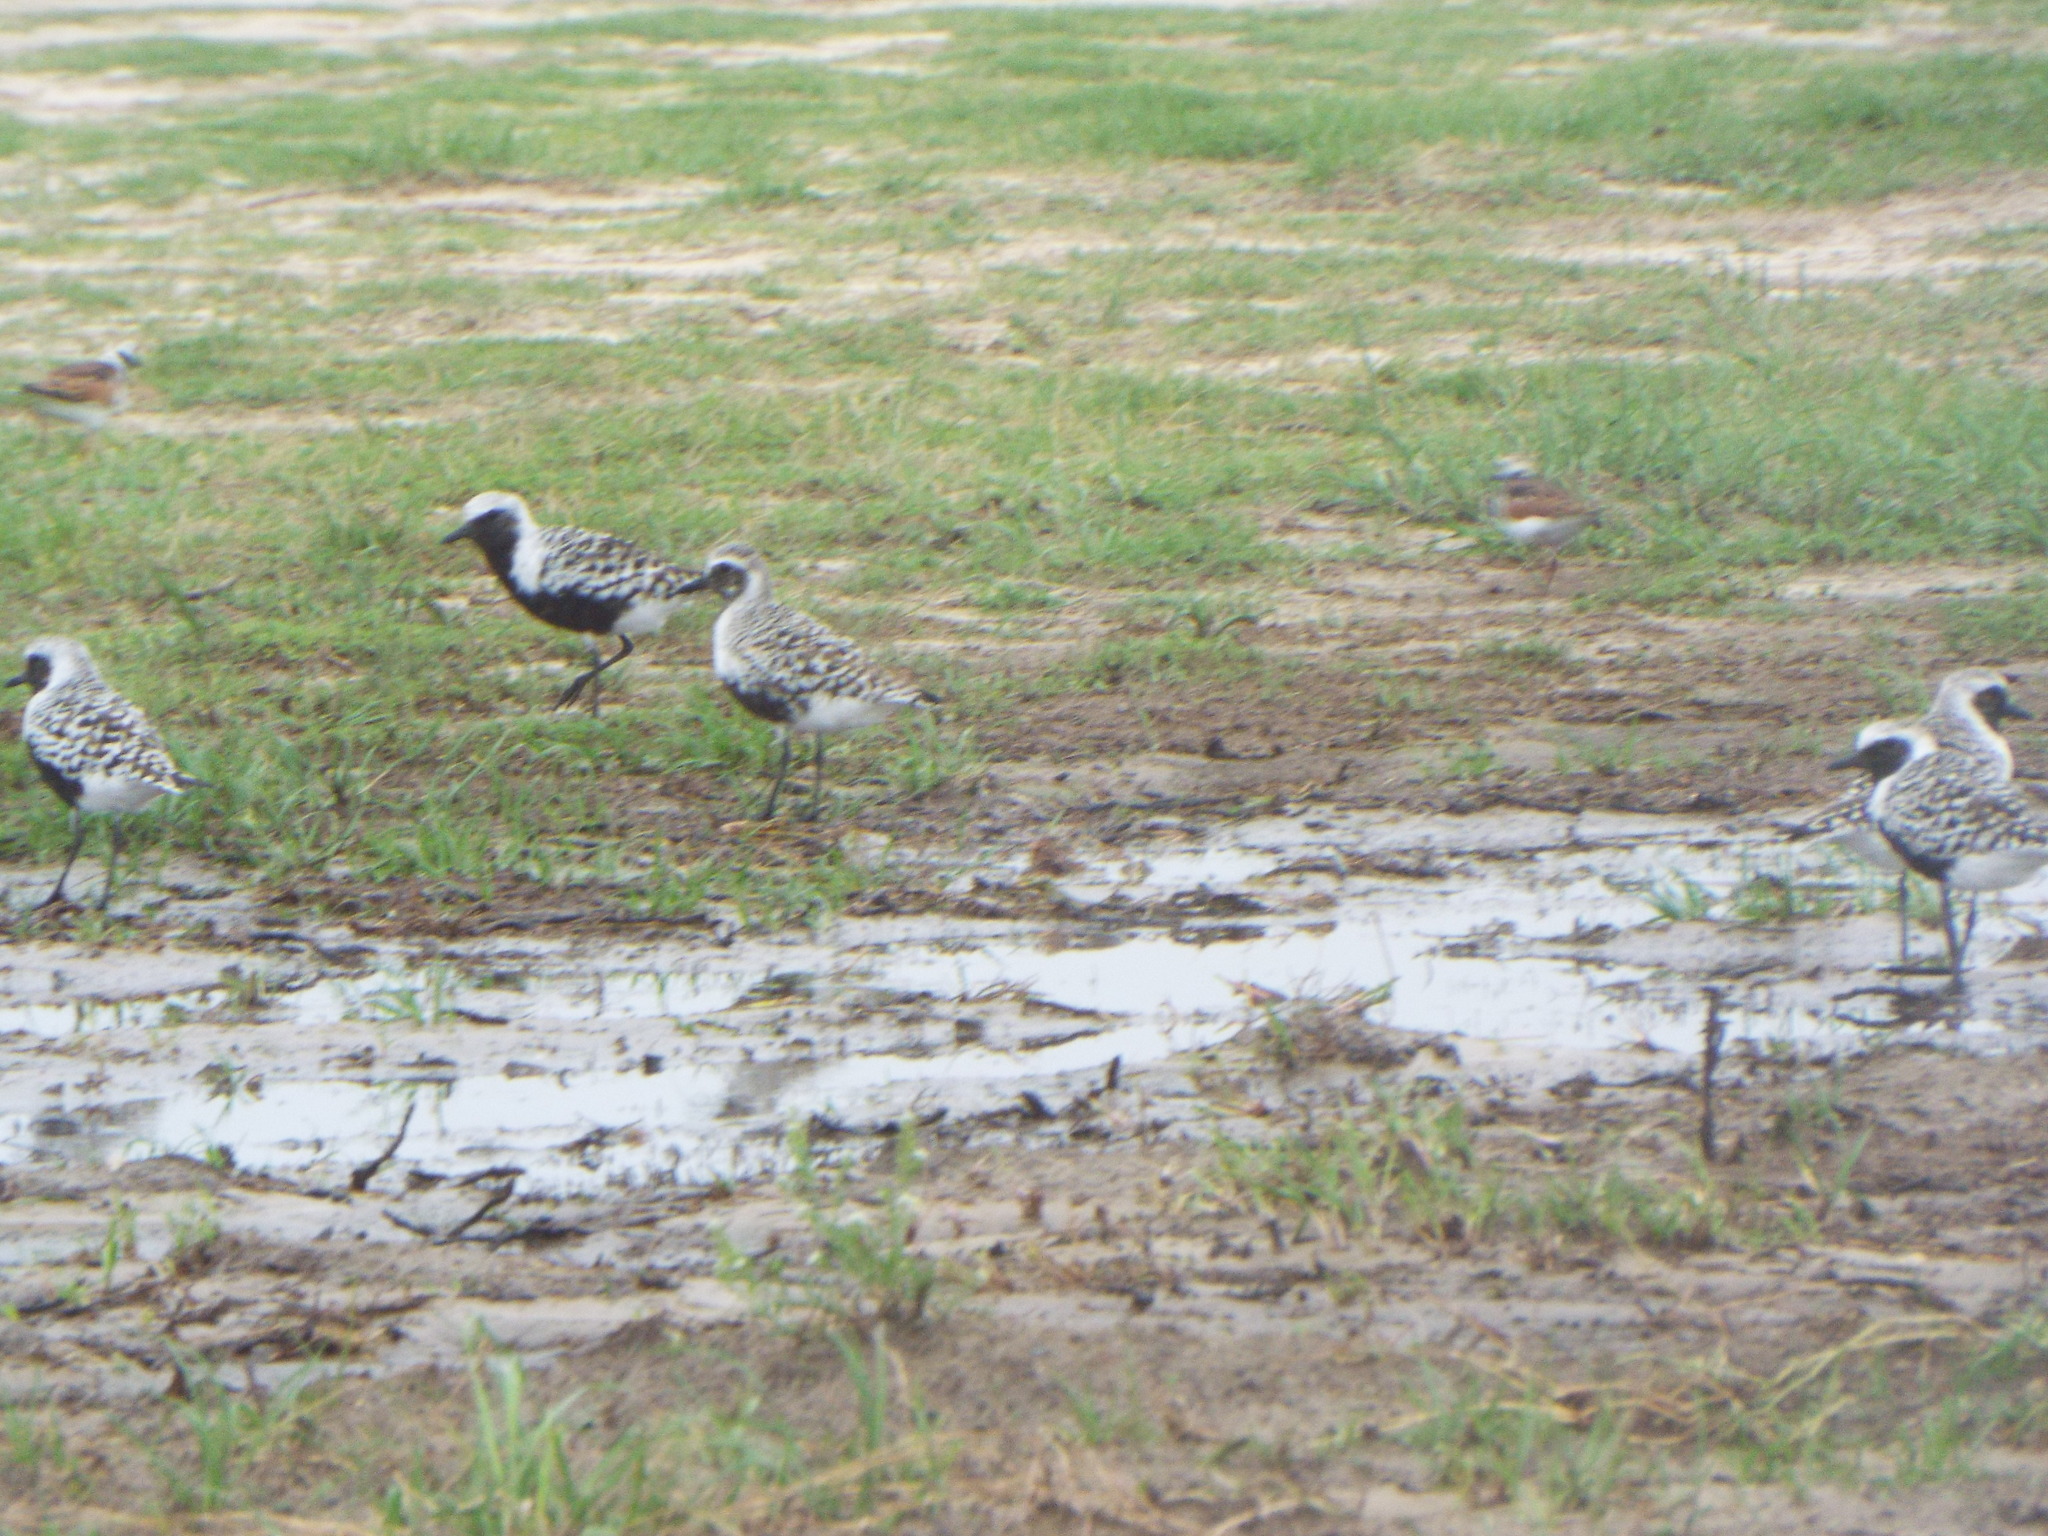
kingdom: Animalia
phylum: Chordata
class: Aves
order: Charadriiformes
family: Charadriidae
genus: Pluvialis
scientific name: Pluvialis squatarola
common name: Grey plover
